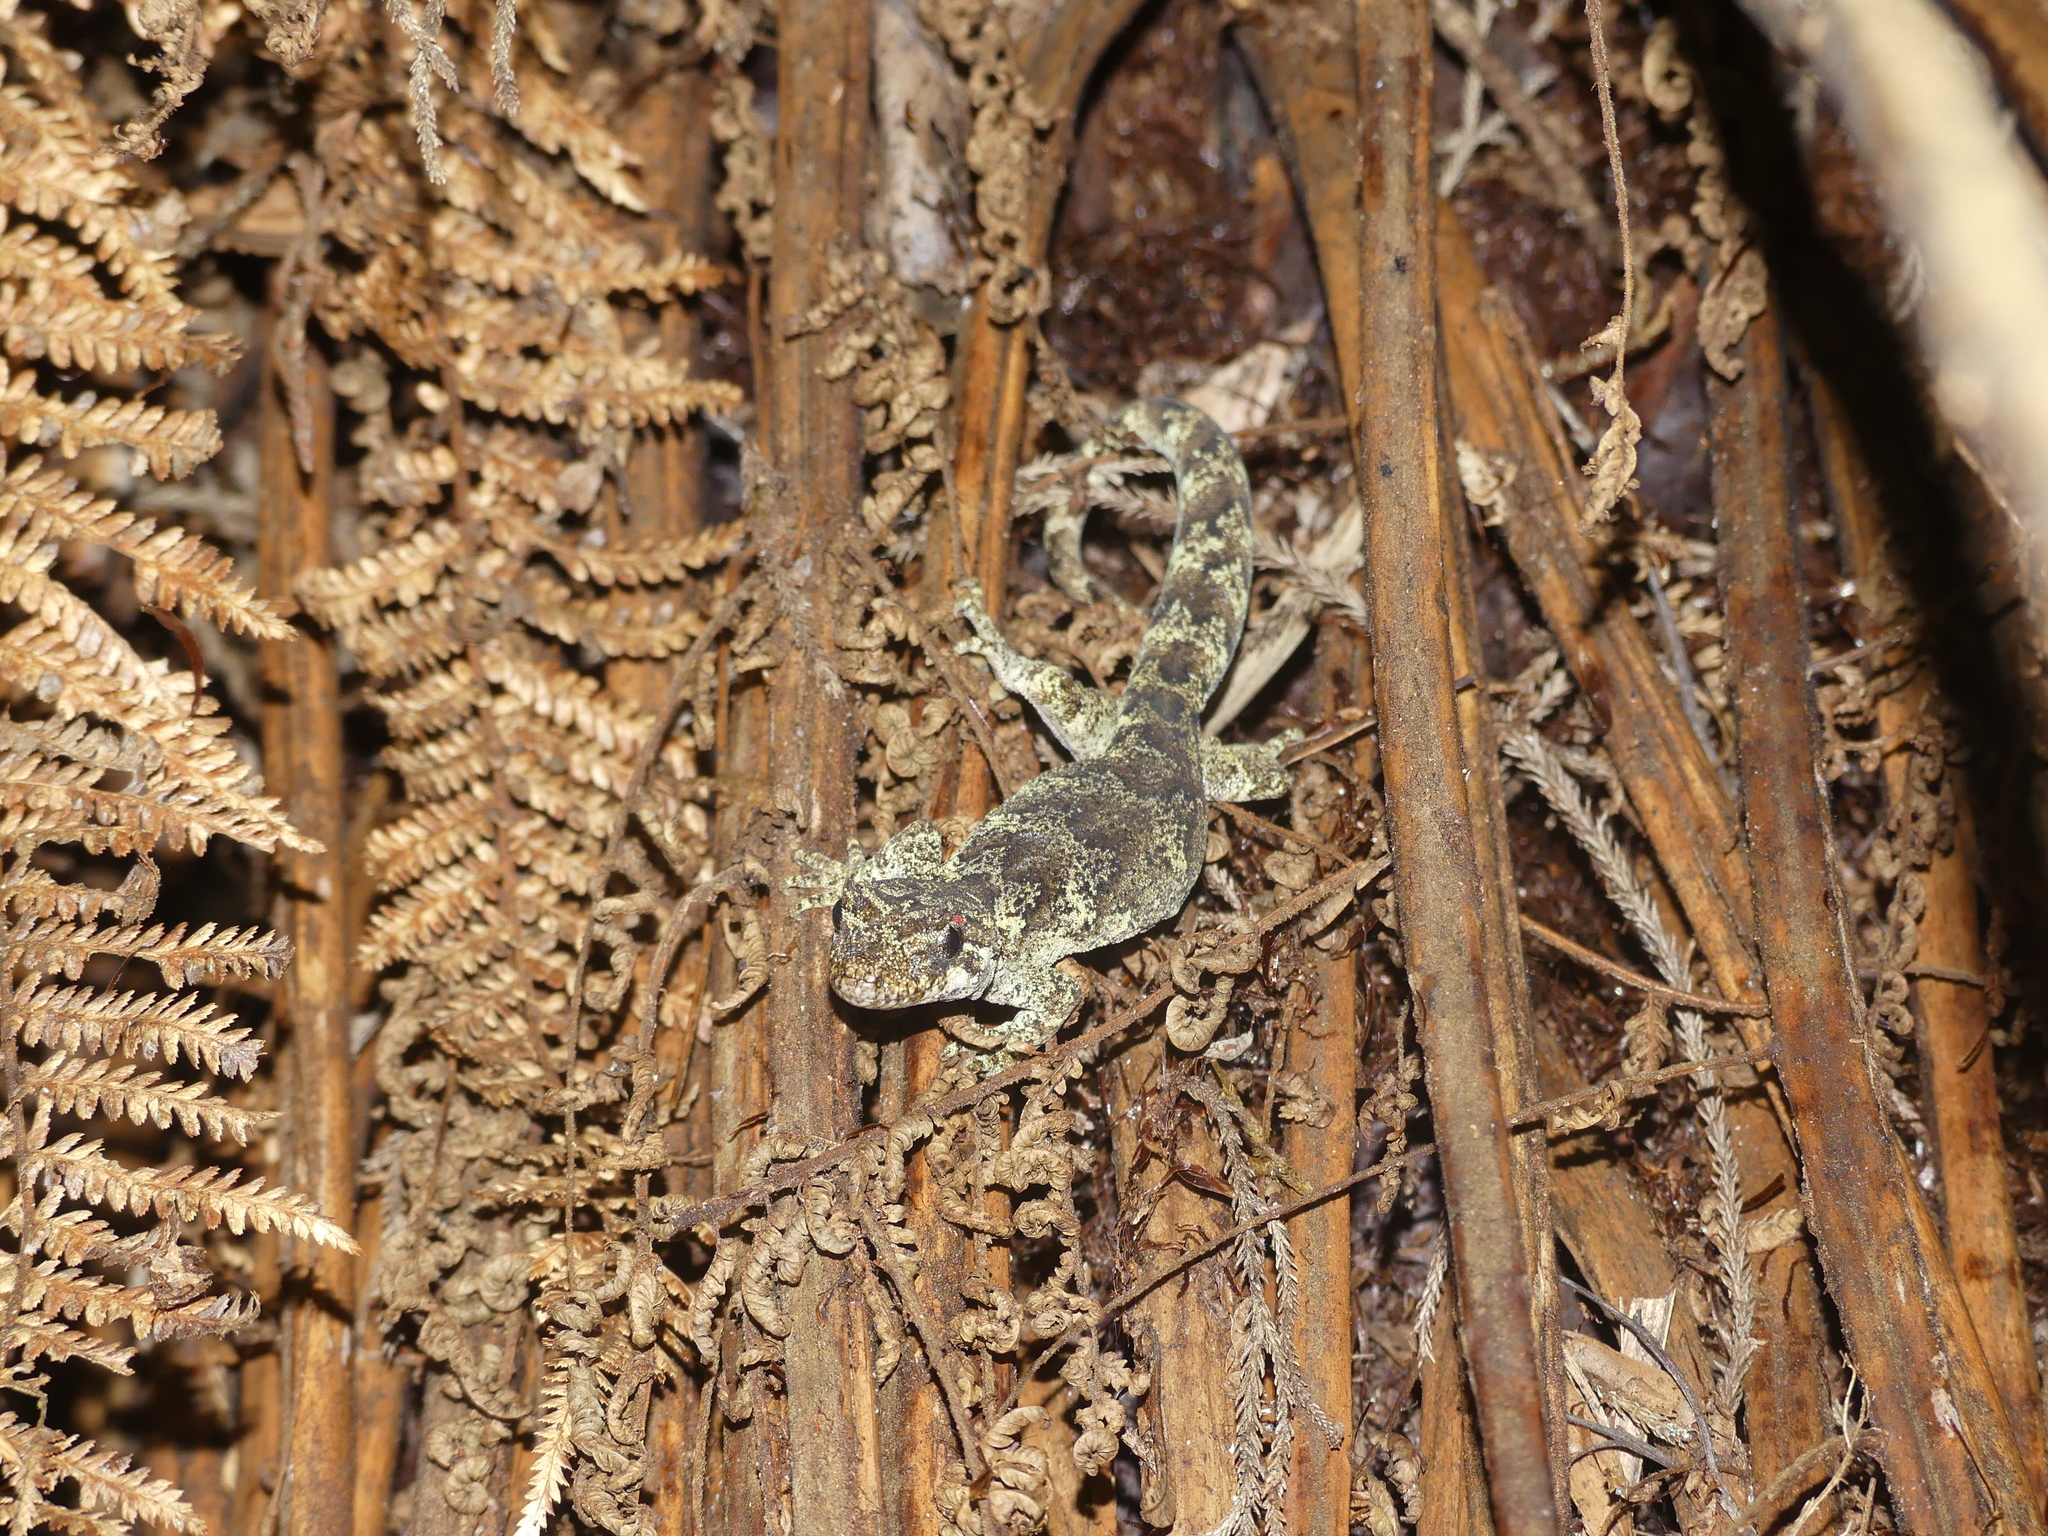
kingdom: Animalia
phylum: Chordata
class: Squamata
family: Diplodactylidae
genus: Mokopirirakau
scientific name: Mokopirirakau granulatus
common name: Forest gecko
